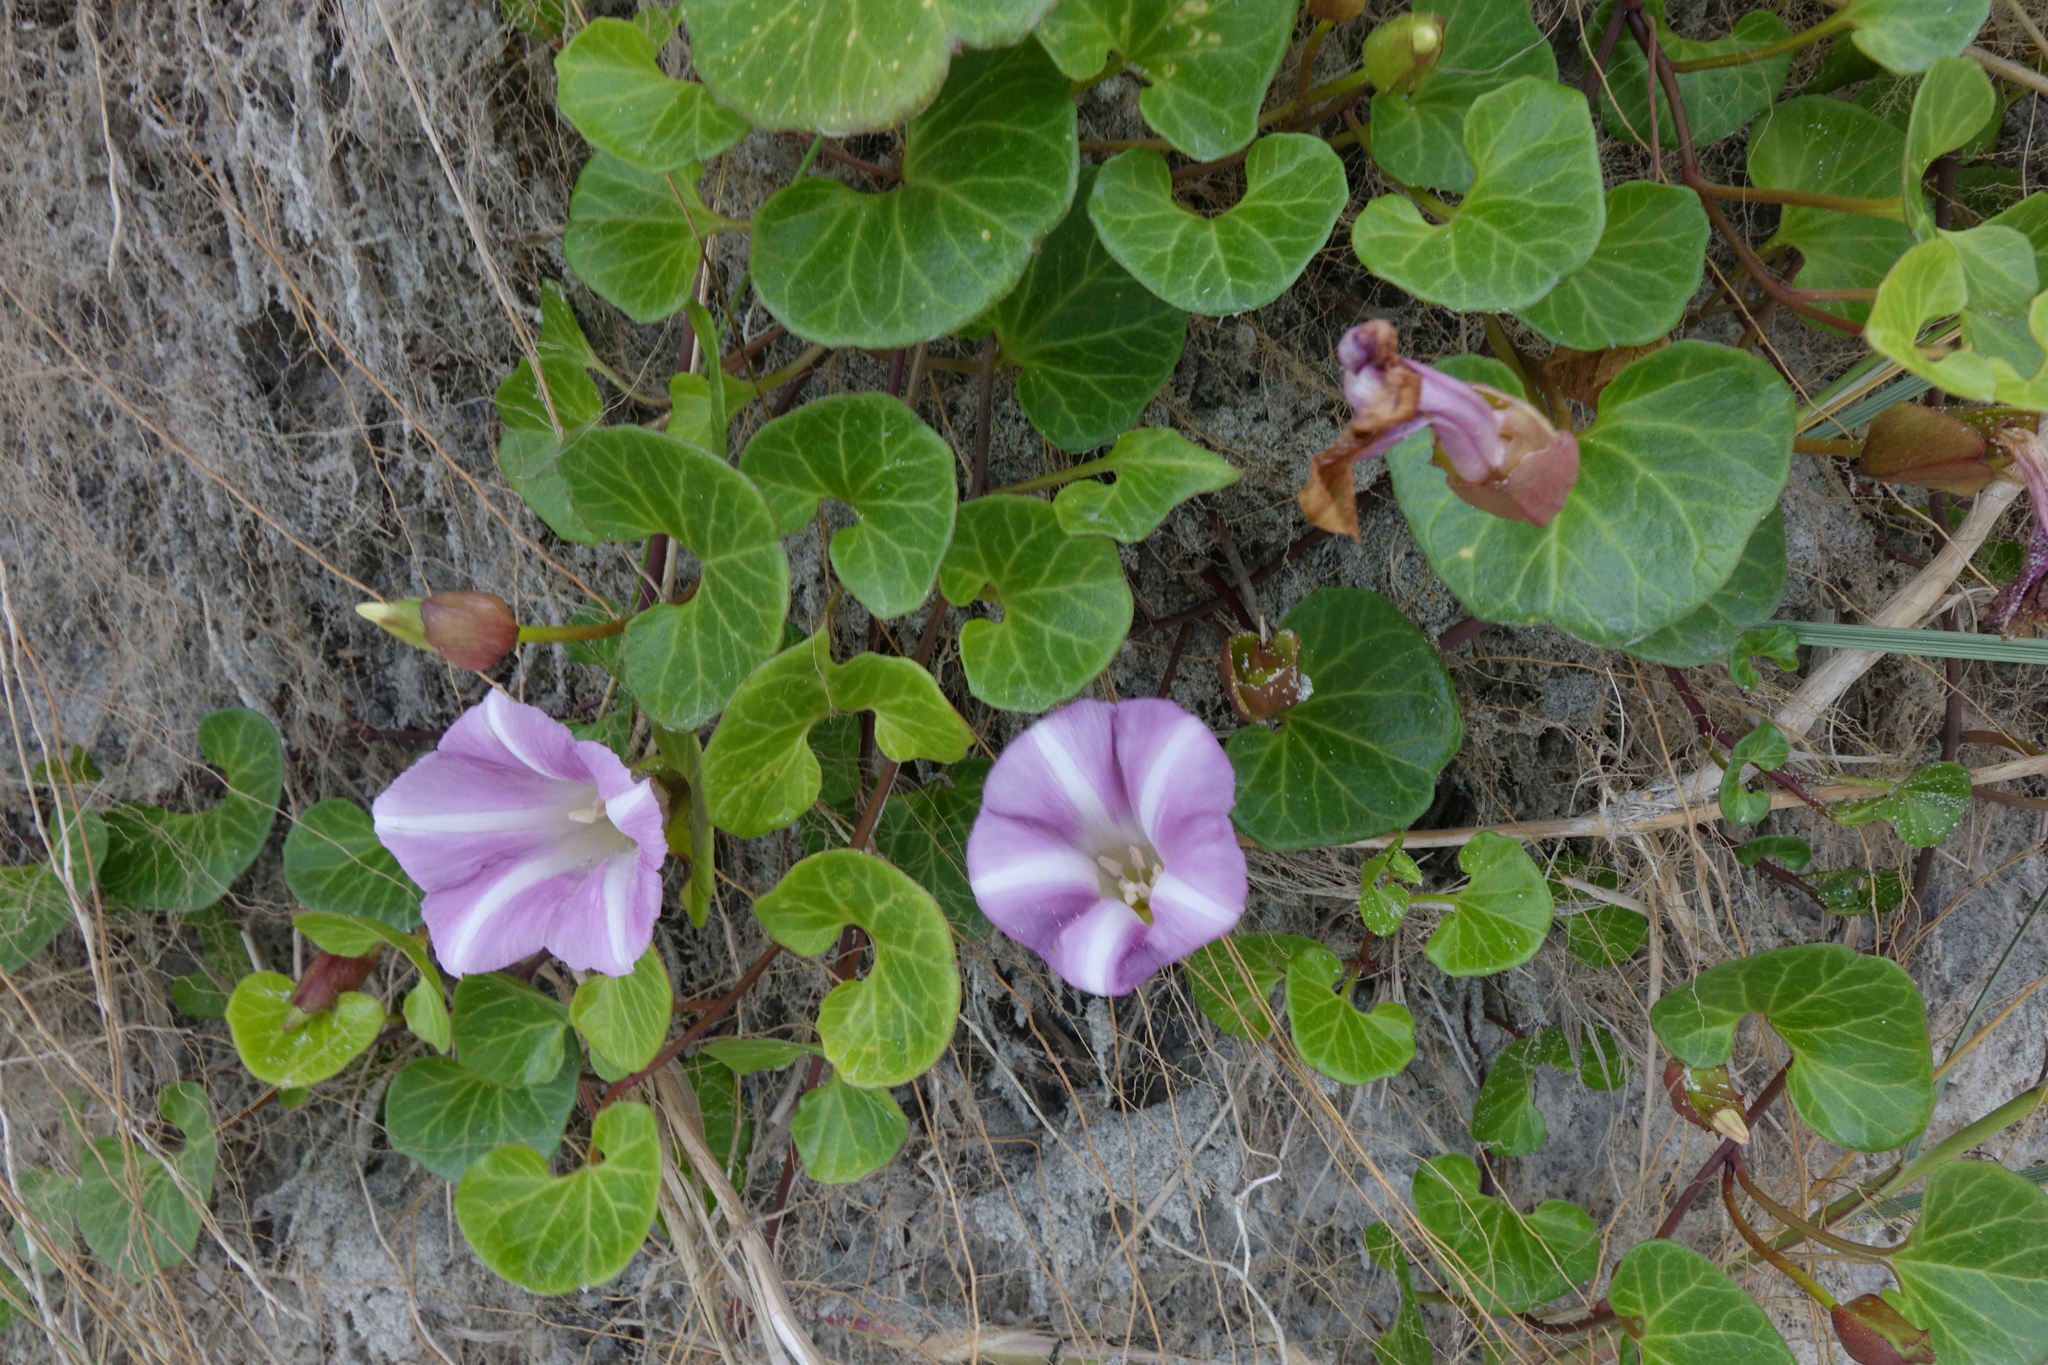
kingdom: Plantae
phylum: Tracheophyta
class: Magnoliopsida
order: Solanales
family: Convolvulaceae
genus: Calystegia
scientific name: Calystegia soldanella
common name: Sea bindweed
